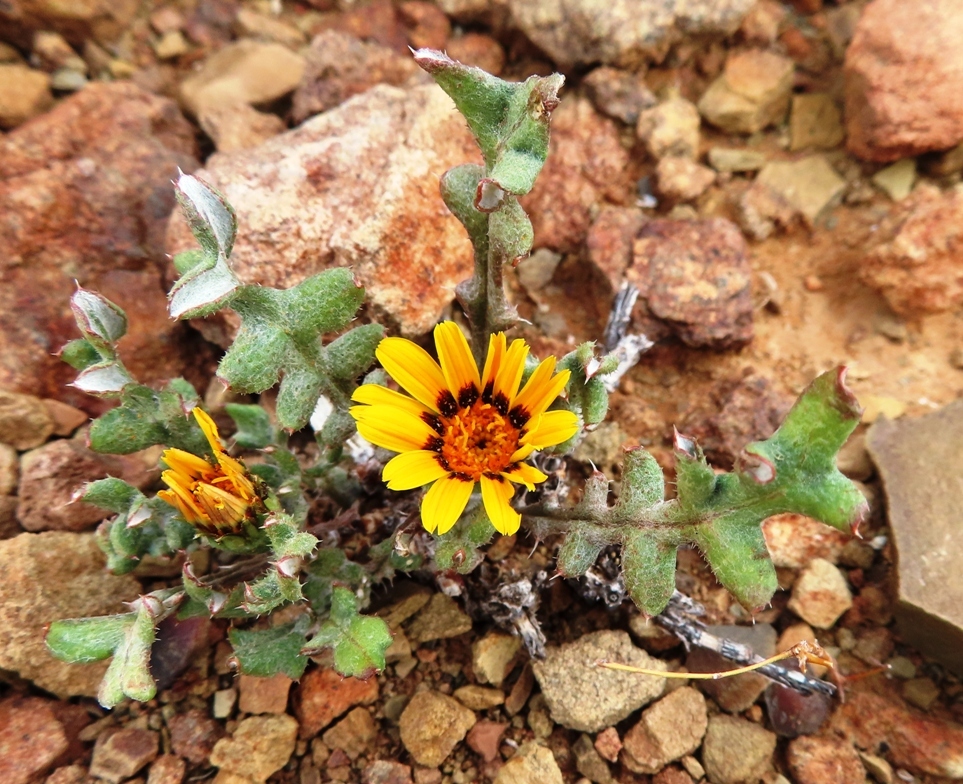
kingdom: Plantae
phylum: Tracheophyta
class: Magnoliopsida
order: Asterales
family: Asteraceae
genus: Gazania
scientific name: Gazania heterochaeta
